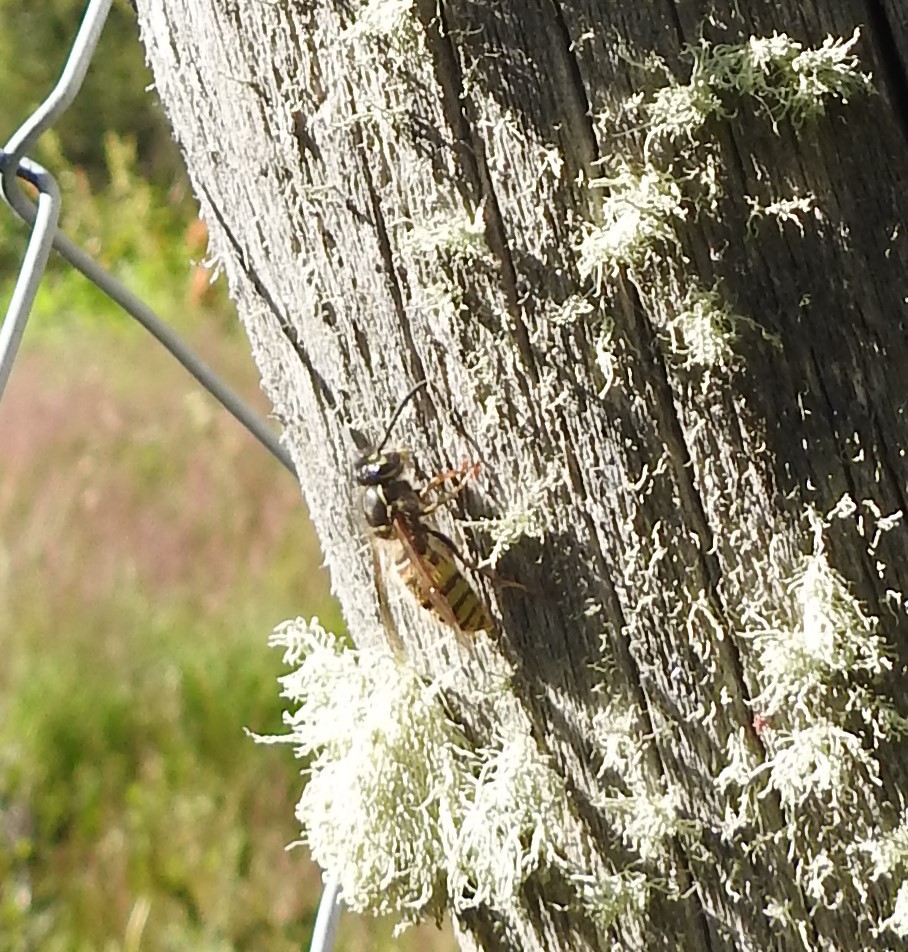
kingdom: Animalia
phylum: Arthropoda
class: Insecta
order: Hymenoptera
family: Vespidae
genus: Vespula
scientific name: Vespula vulgaris
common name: Common wasp
